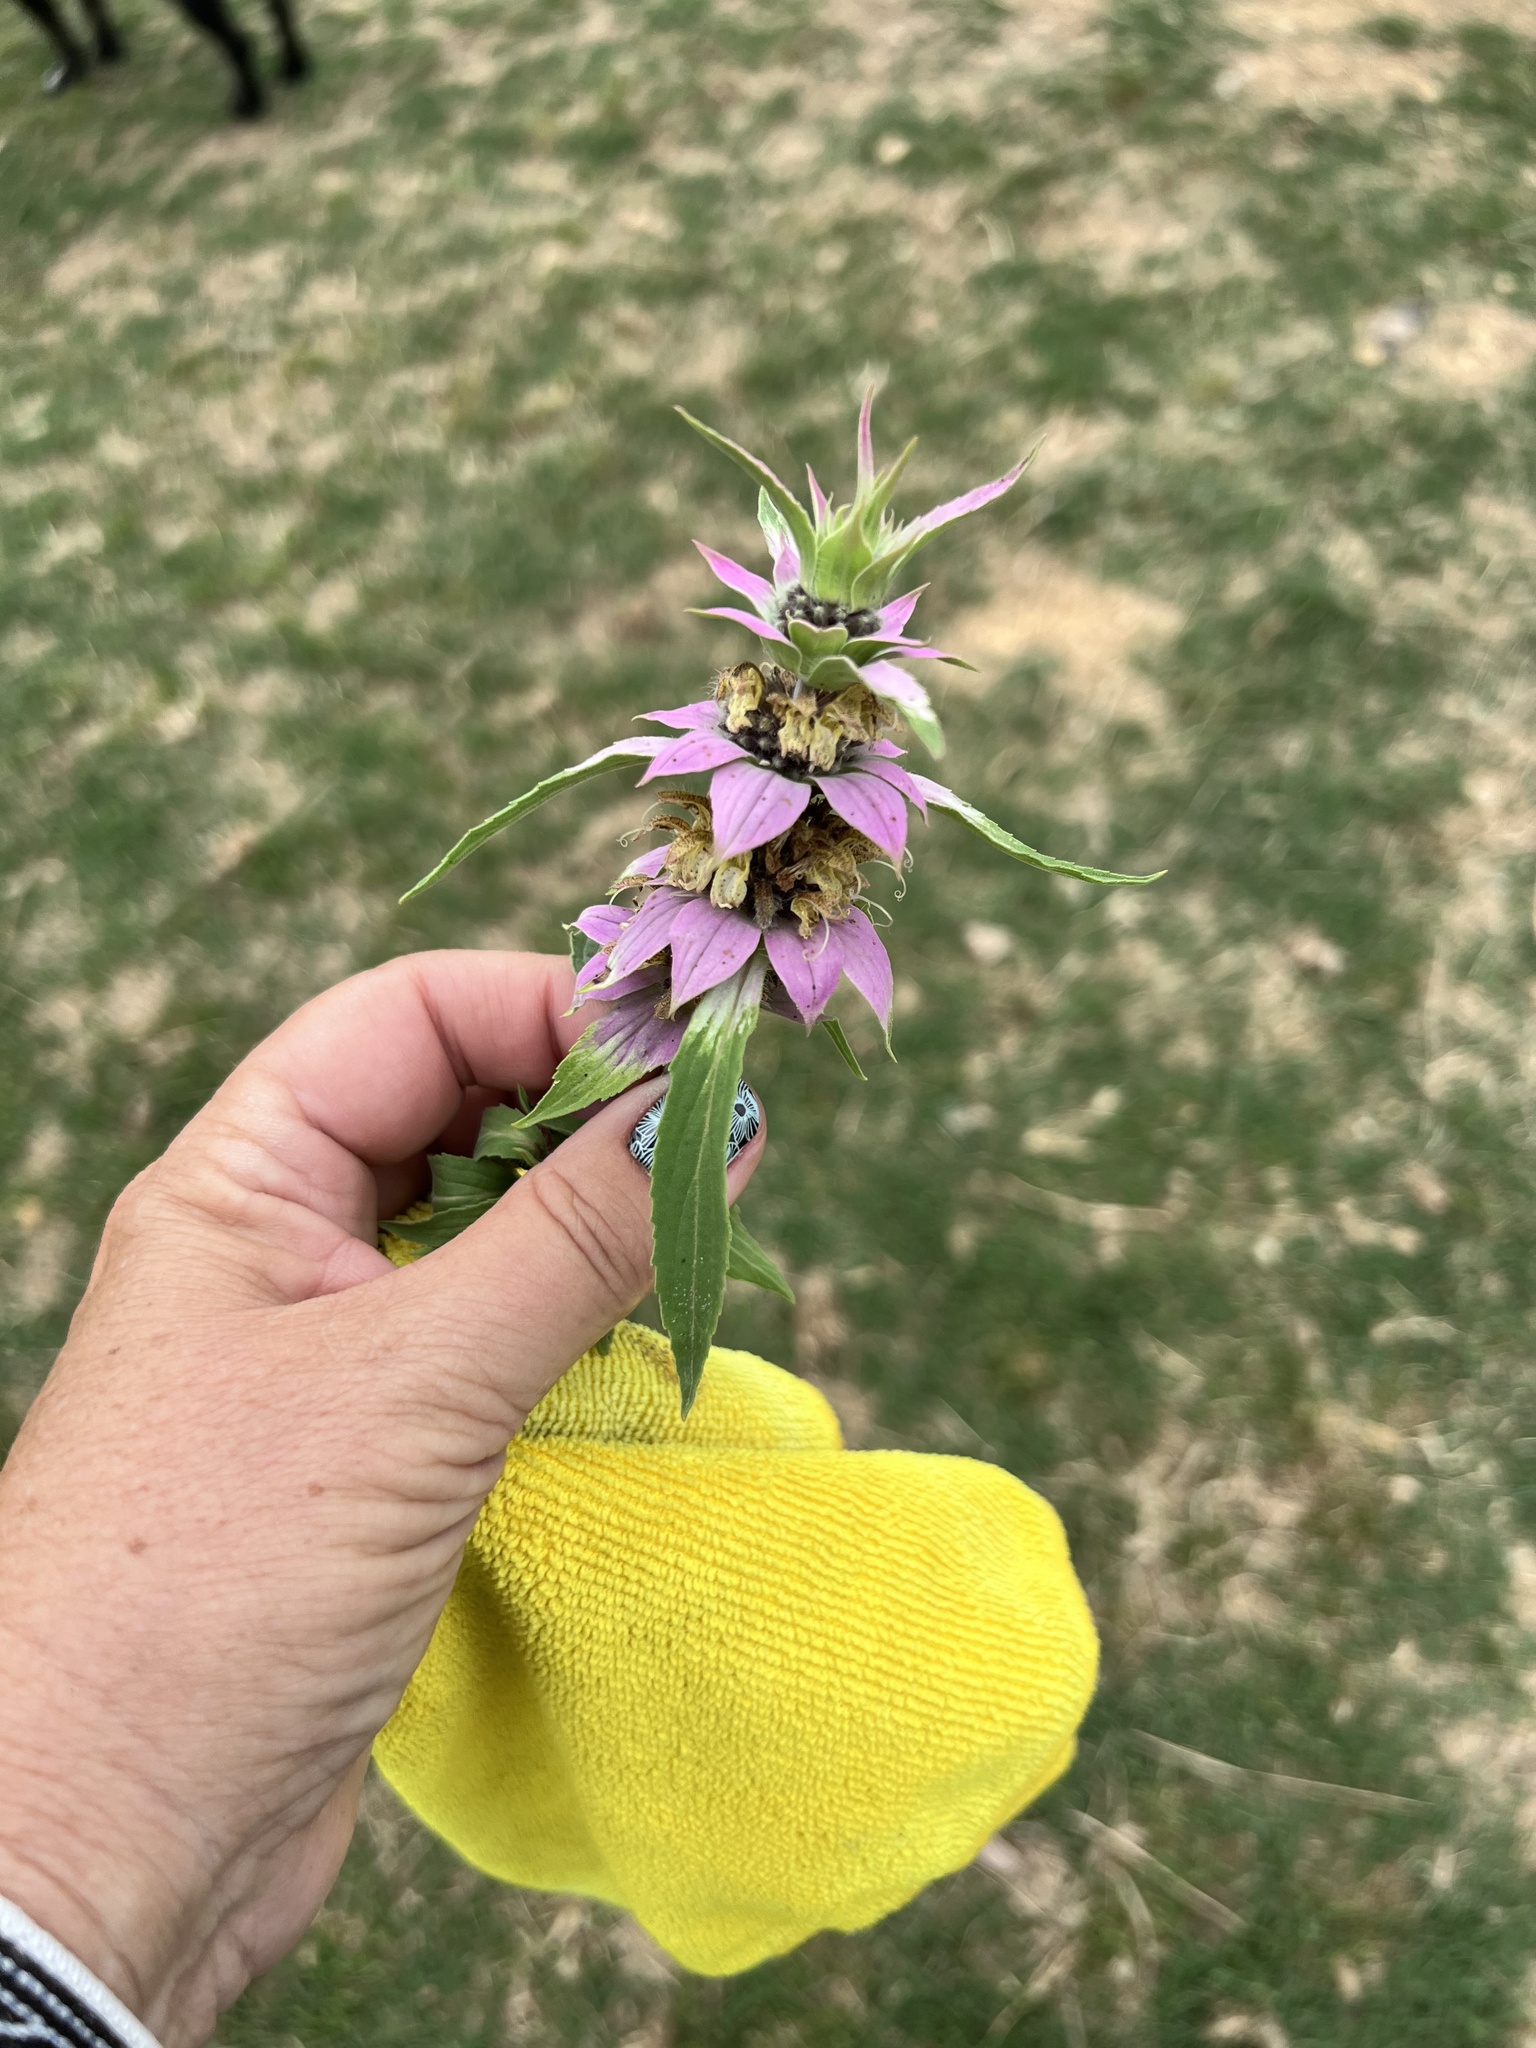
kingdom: Plantae
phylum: Tracheophyta
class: Magnoliopsida
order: Lamiales
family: Lamiaceae
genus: Monarda
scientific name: Monarda punctata
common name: Dotted monarda
